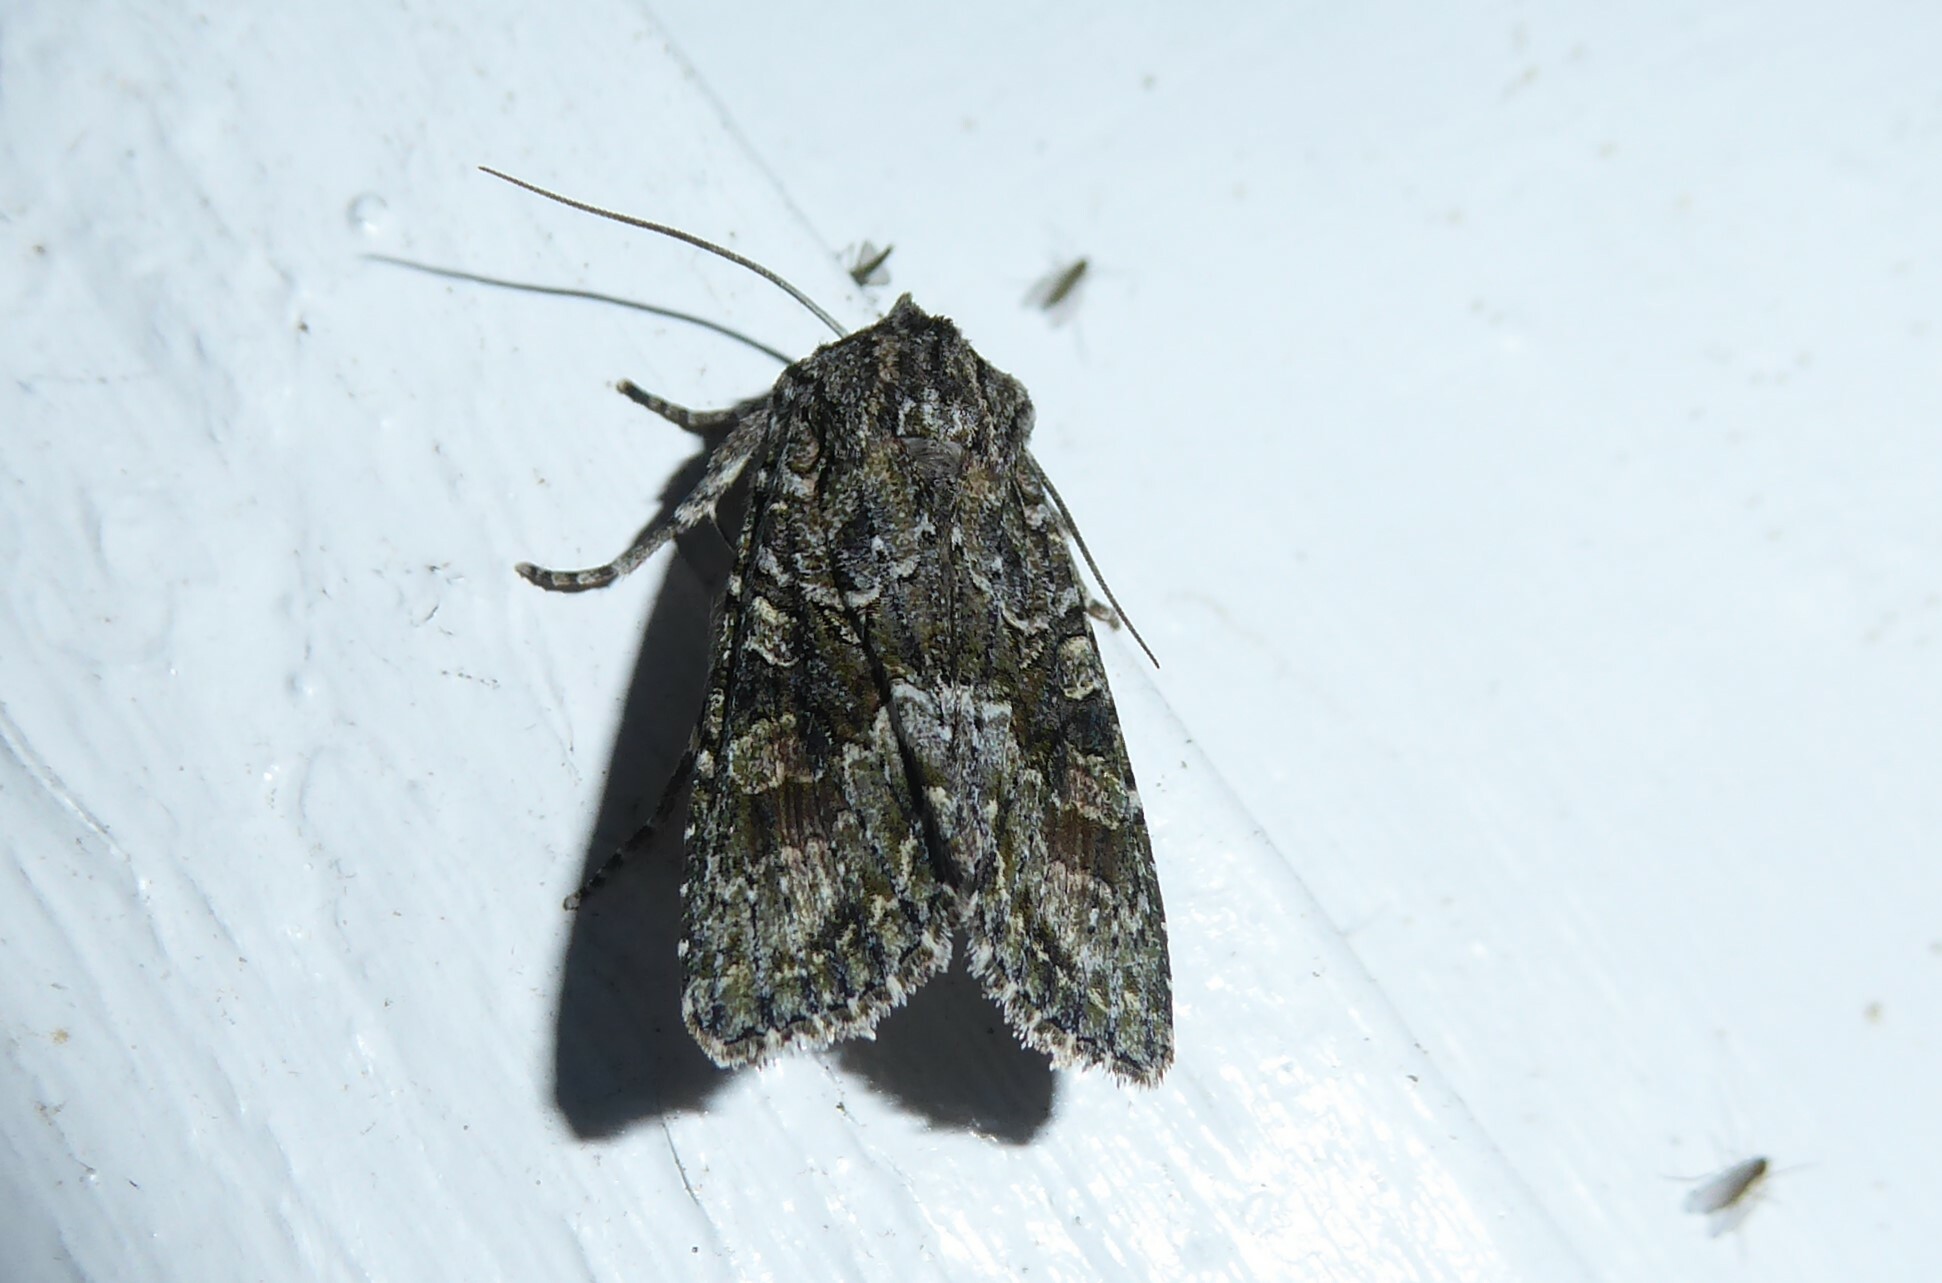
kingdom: Animalia
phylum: Arthropoda
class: Insecta
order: Lepidoptera
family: Noctuidae
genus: Ichneutica
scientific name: Ichneutica mutans
